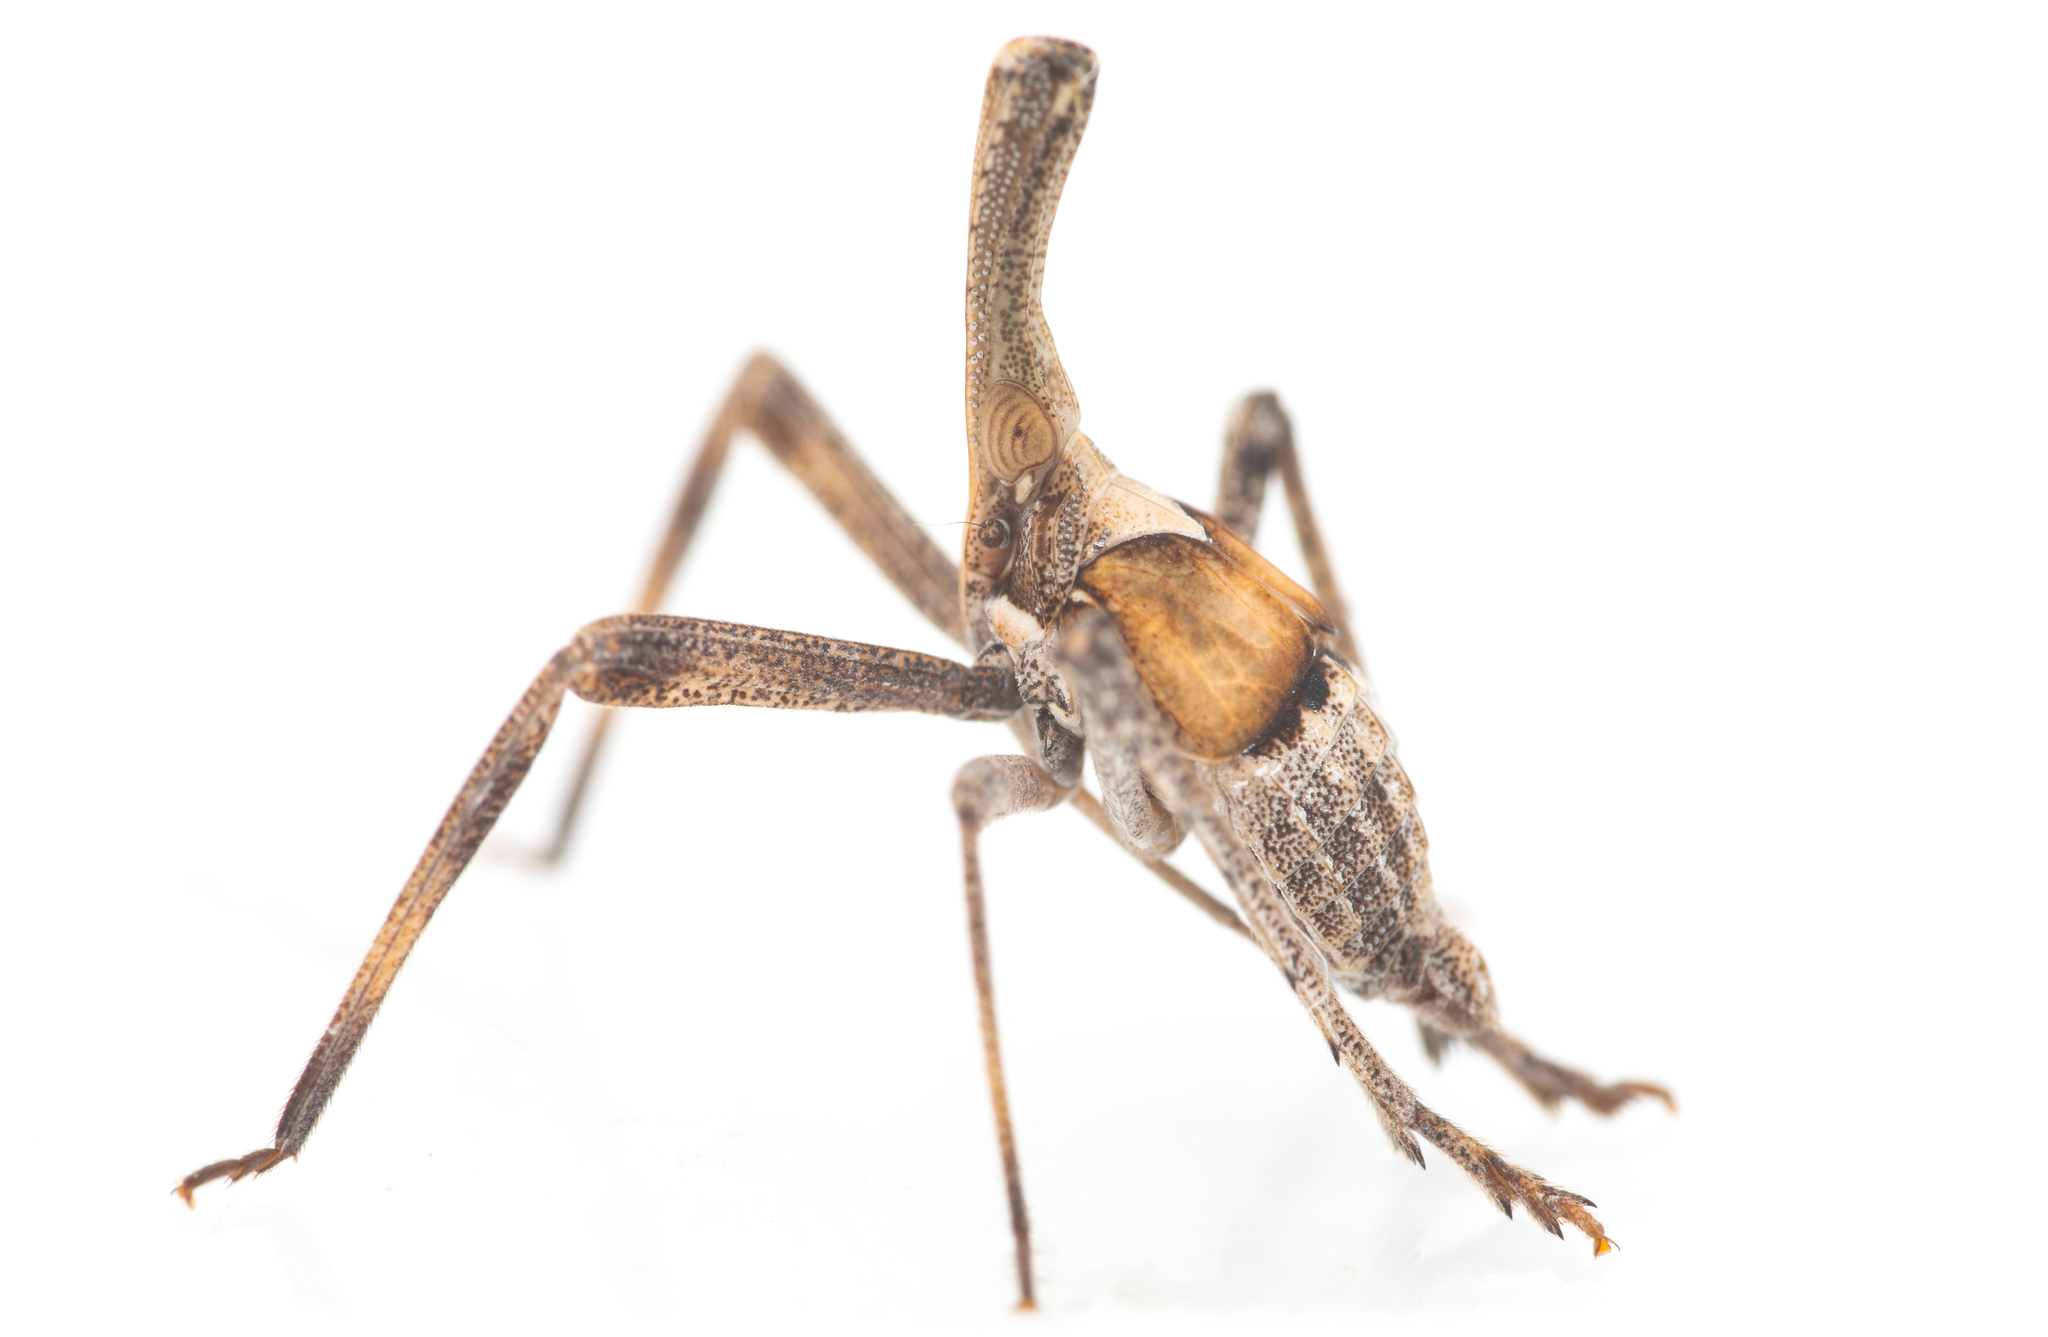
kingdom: Animalia
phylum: Arthropoda
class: Insecta
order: Hemiptera
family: Dictyopharidae
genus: Almana
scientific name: Almana longipes
